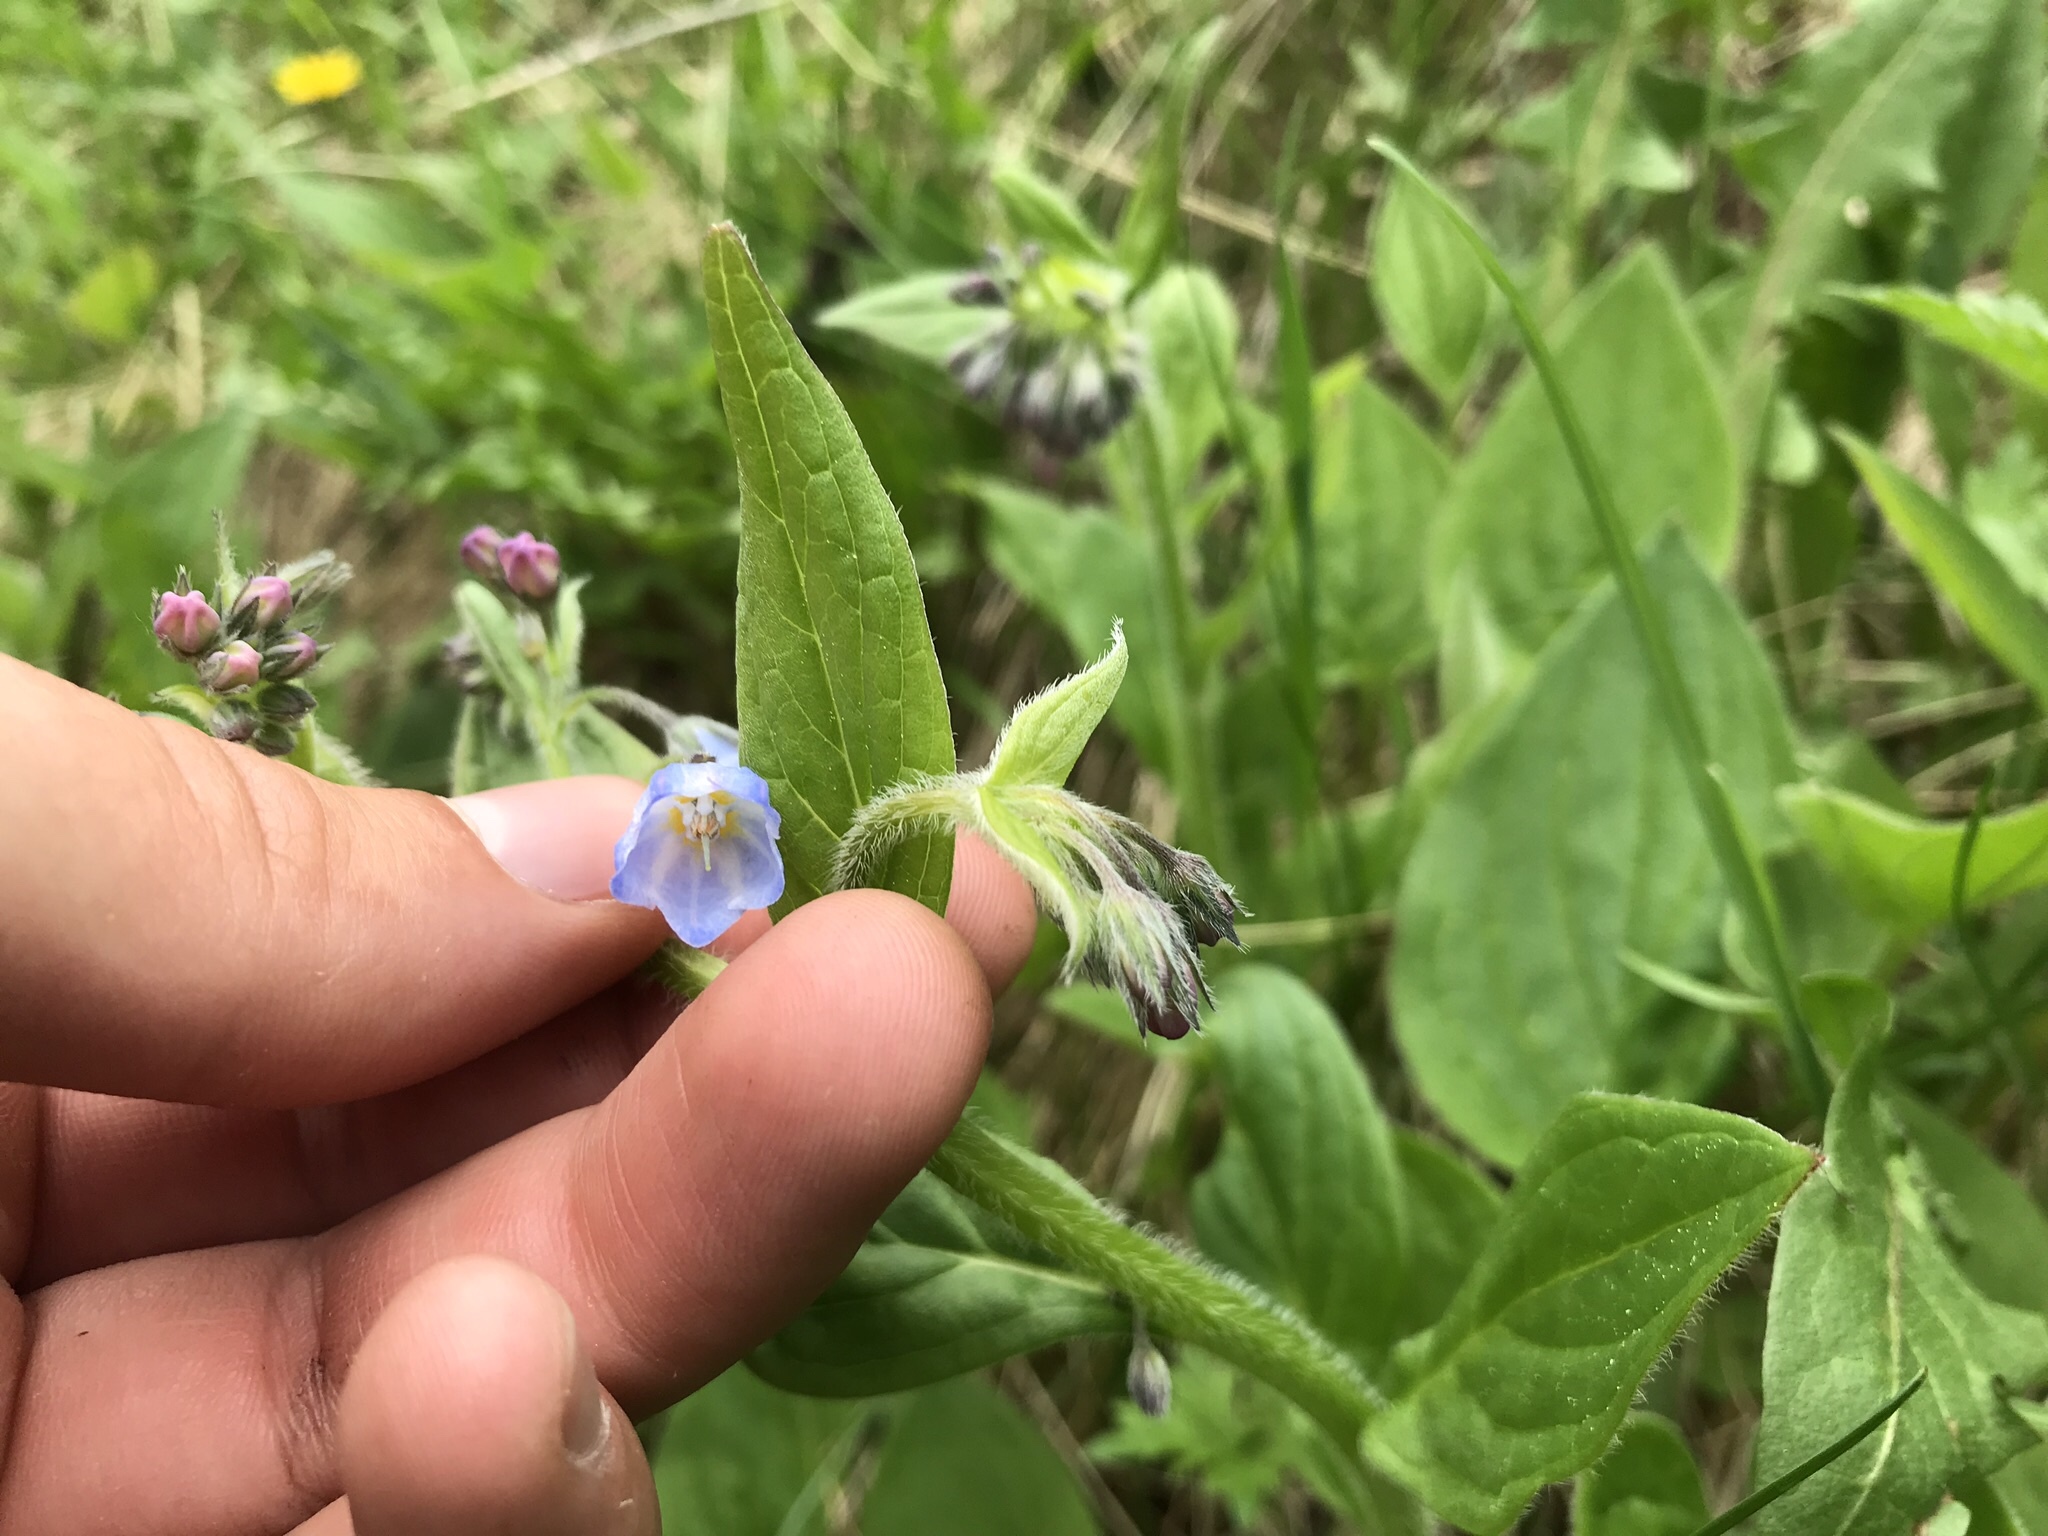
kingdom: Plantae
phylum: Tracheophyta
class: Magnoliopsida
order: Boraginales
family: Boraginaceae
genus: Mertensia
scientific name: Mertensia paniculata
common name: Panicled bluebells
